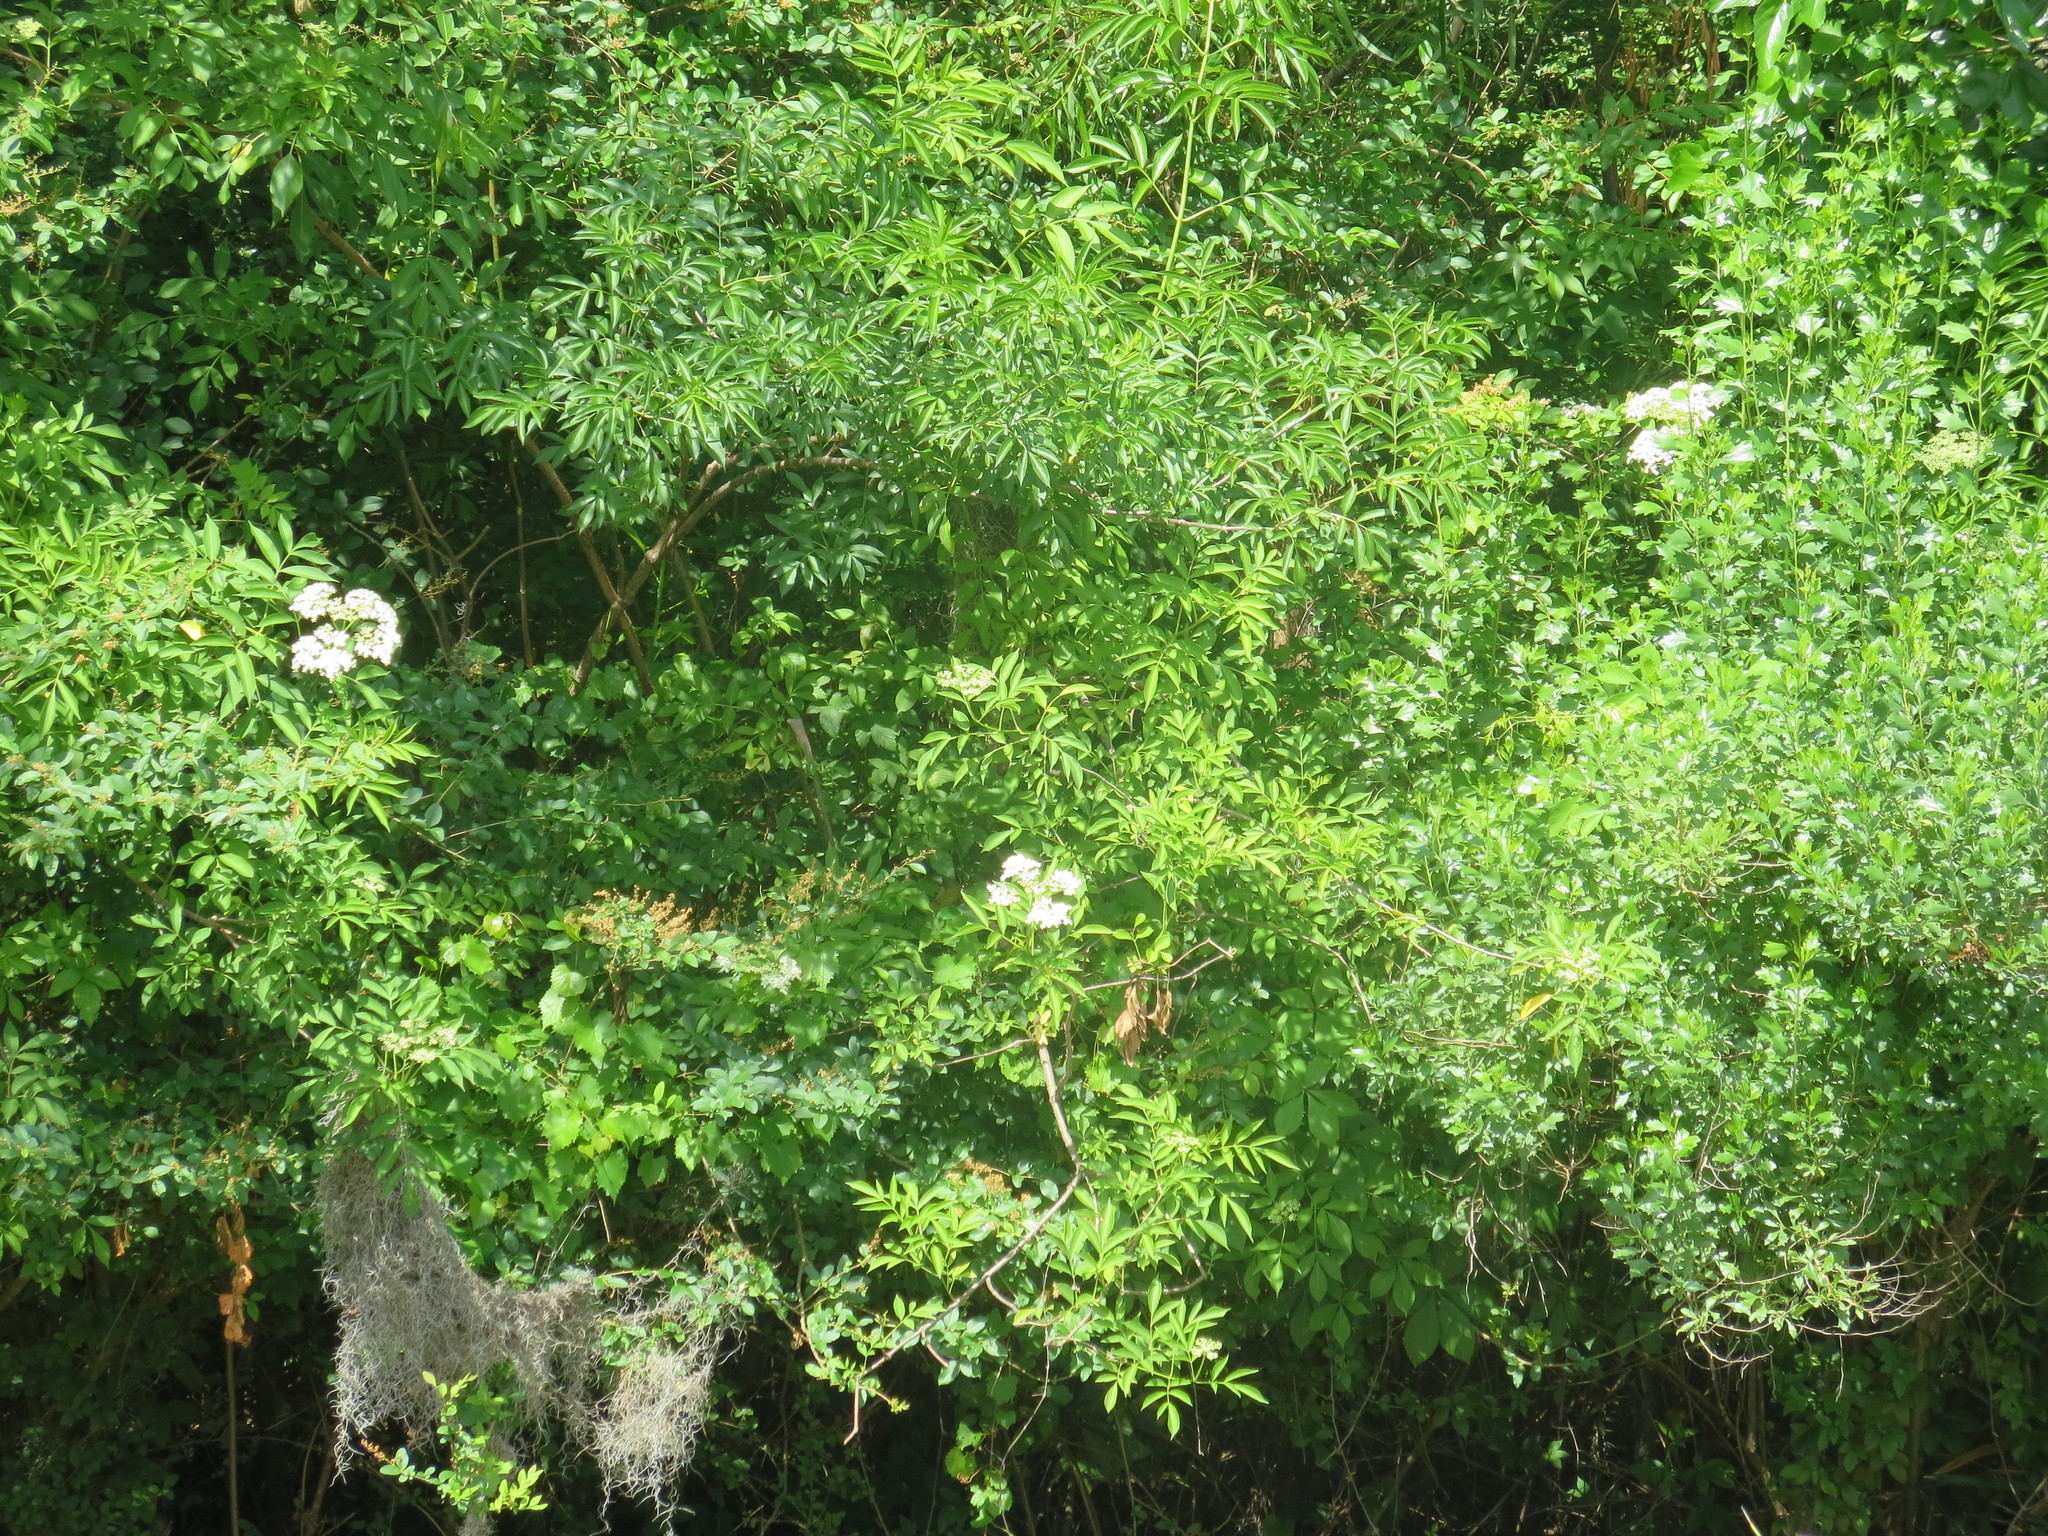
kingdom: Plantae
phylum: Tracheophyta
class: Magnoliopsida
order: Dipsacales
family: Viburnaceae
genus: Sambucus
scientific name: Sambucus canadensis
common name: American elder
